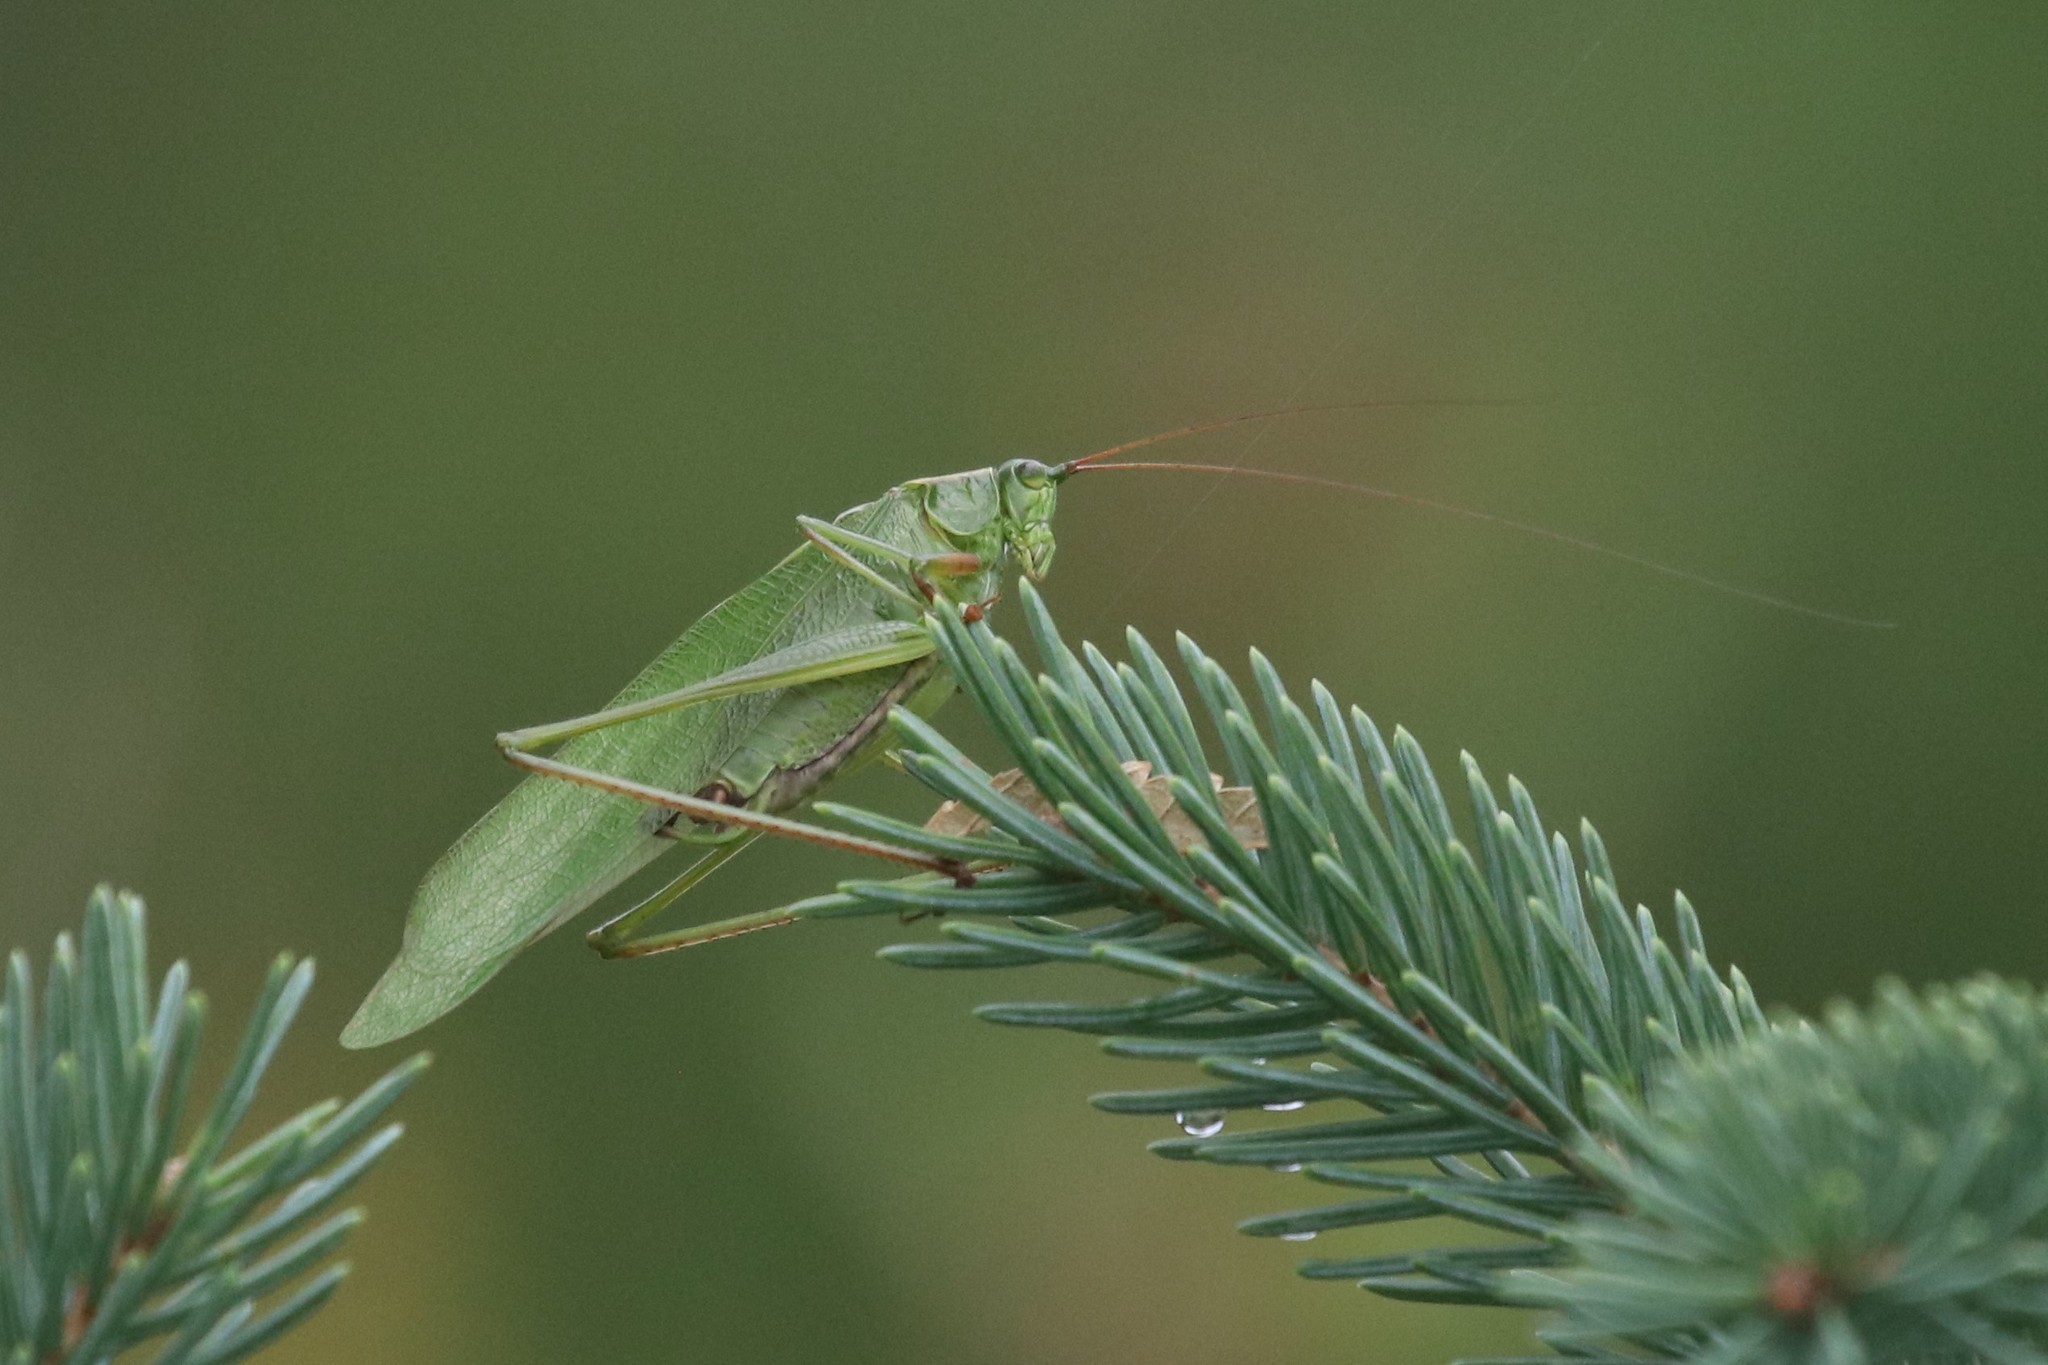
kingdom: Animalia
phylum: Arthropoda
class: Insecta
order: Orthoptera
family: Tettigoniidae
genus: Scudderia
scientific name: Scudderia furcata
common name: Fork-tailed bush katydid
